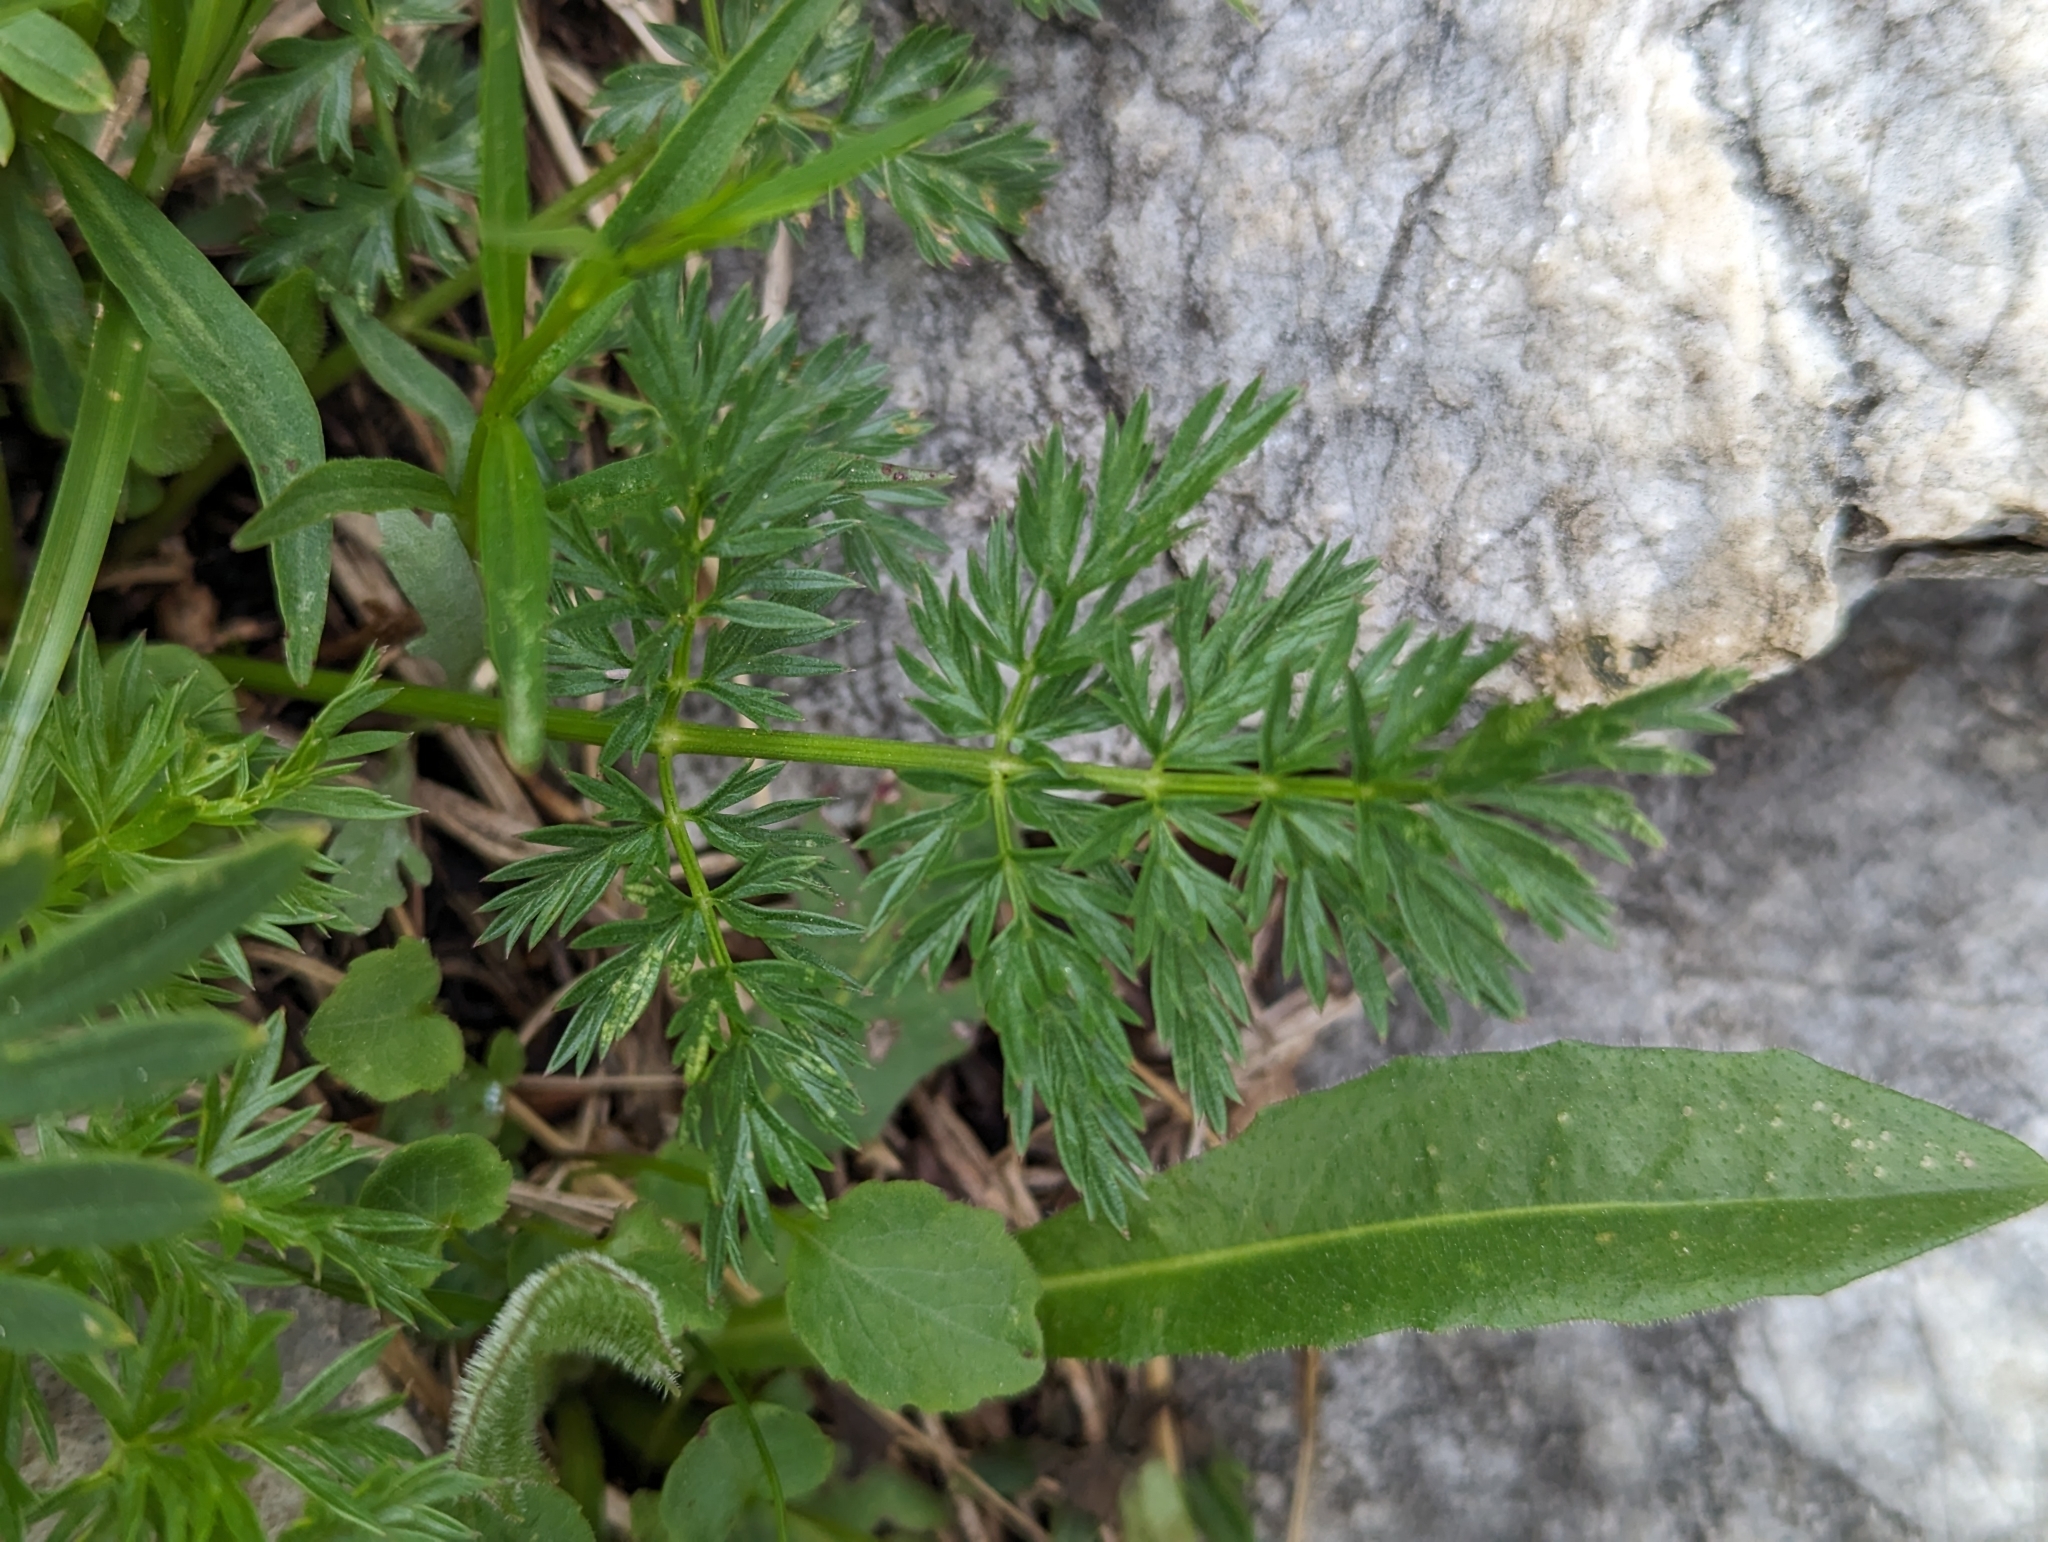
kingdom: Plantae
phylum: Tracheophyta
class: Magnoliopsida
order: Apiales
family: Apiaceae
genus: Mutellina
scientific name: Mutellina adonidifolia
